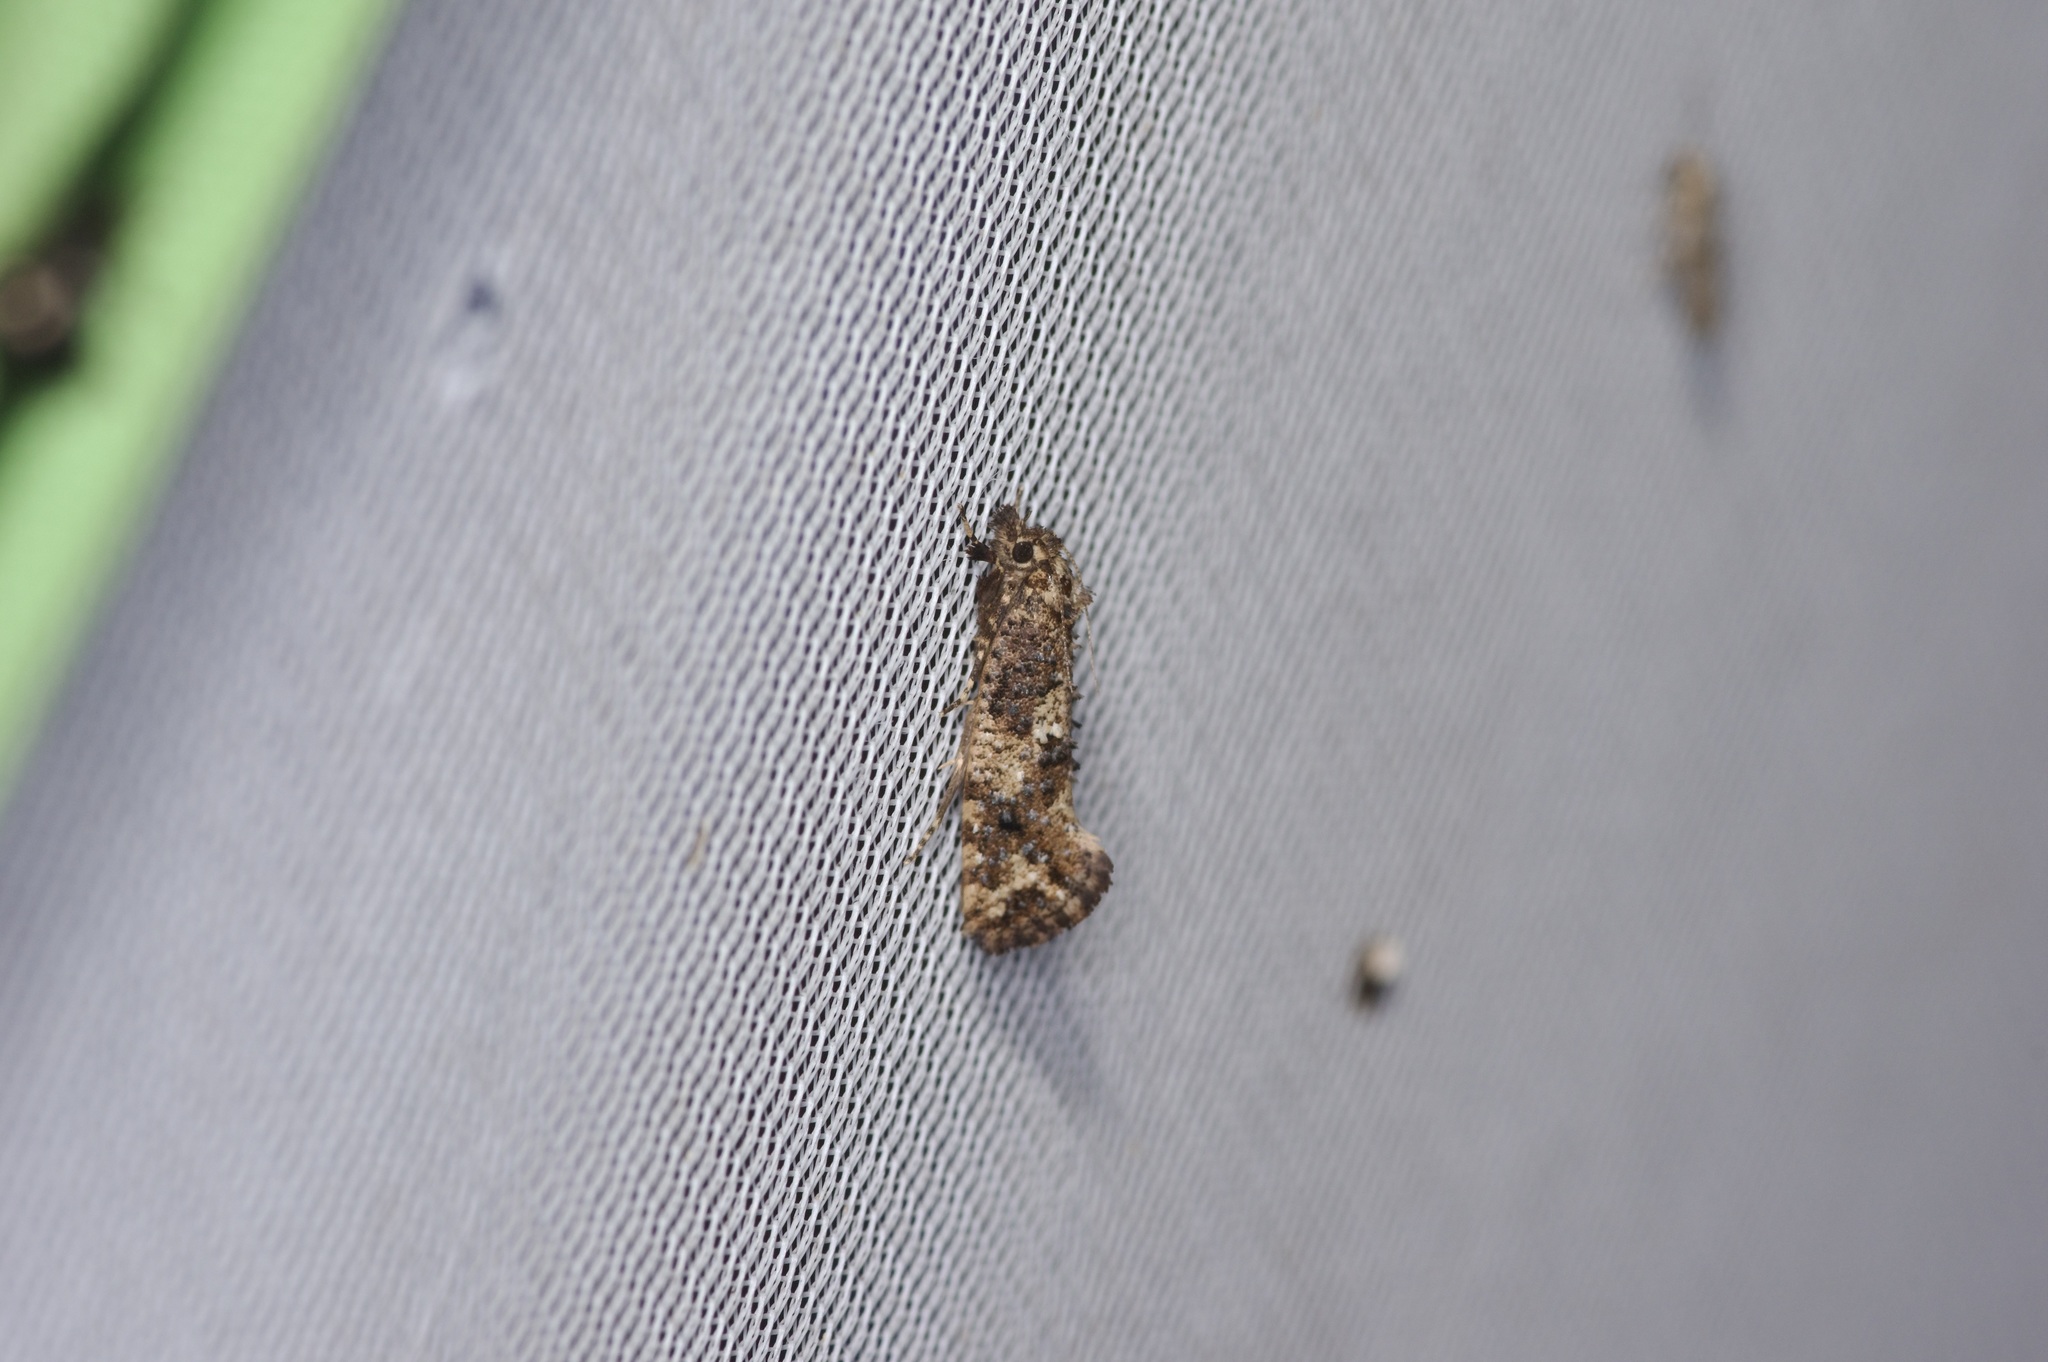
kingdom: Animalia
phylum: Arthropoda
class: Insecta
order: Lepidoptera
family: Tineidae
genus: Acrolophus
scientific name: Acrolophus cressoni
